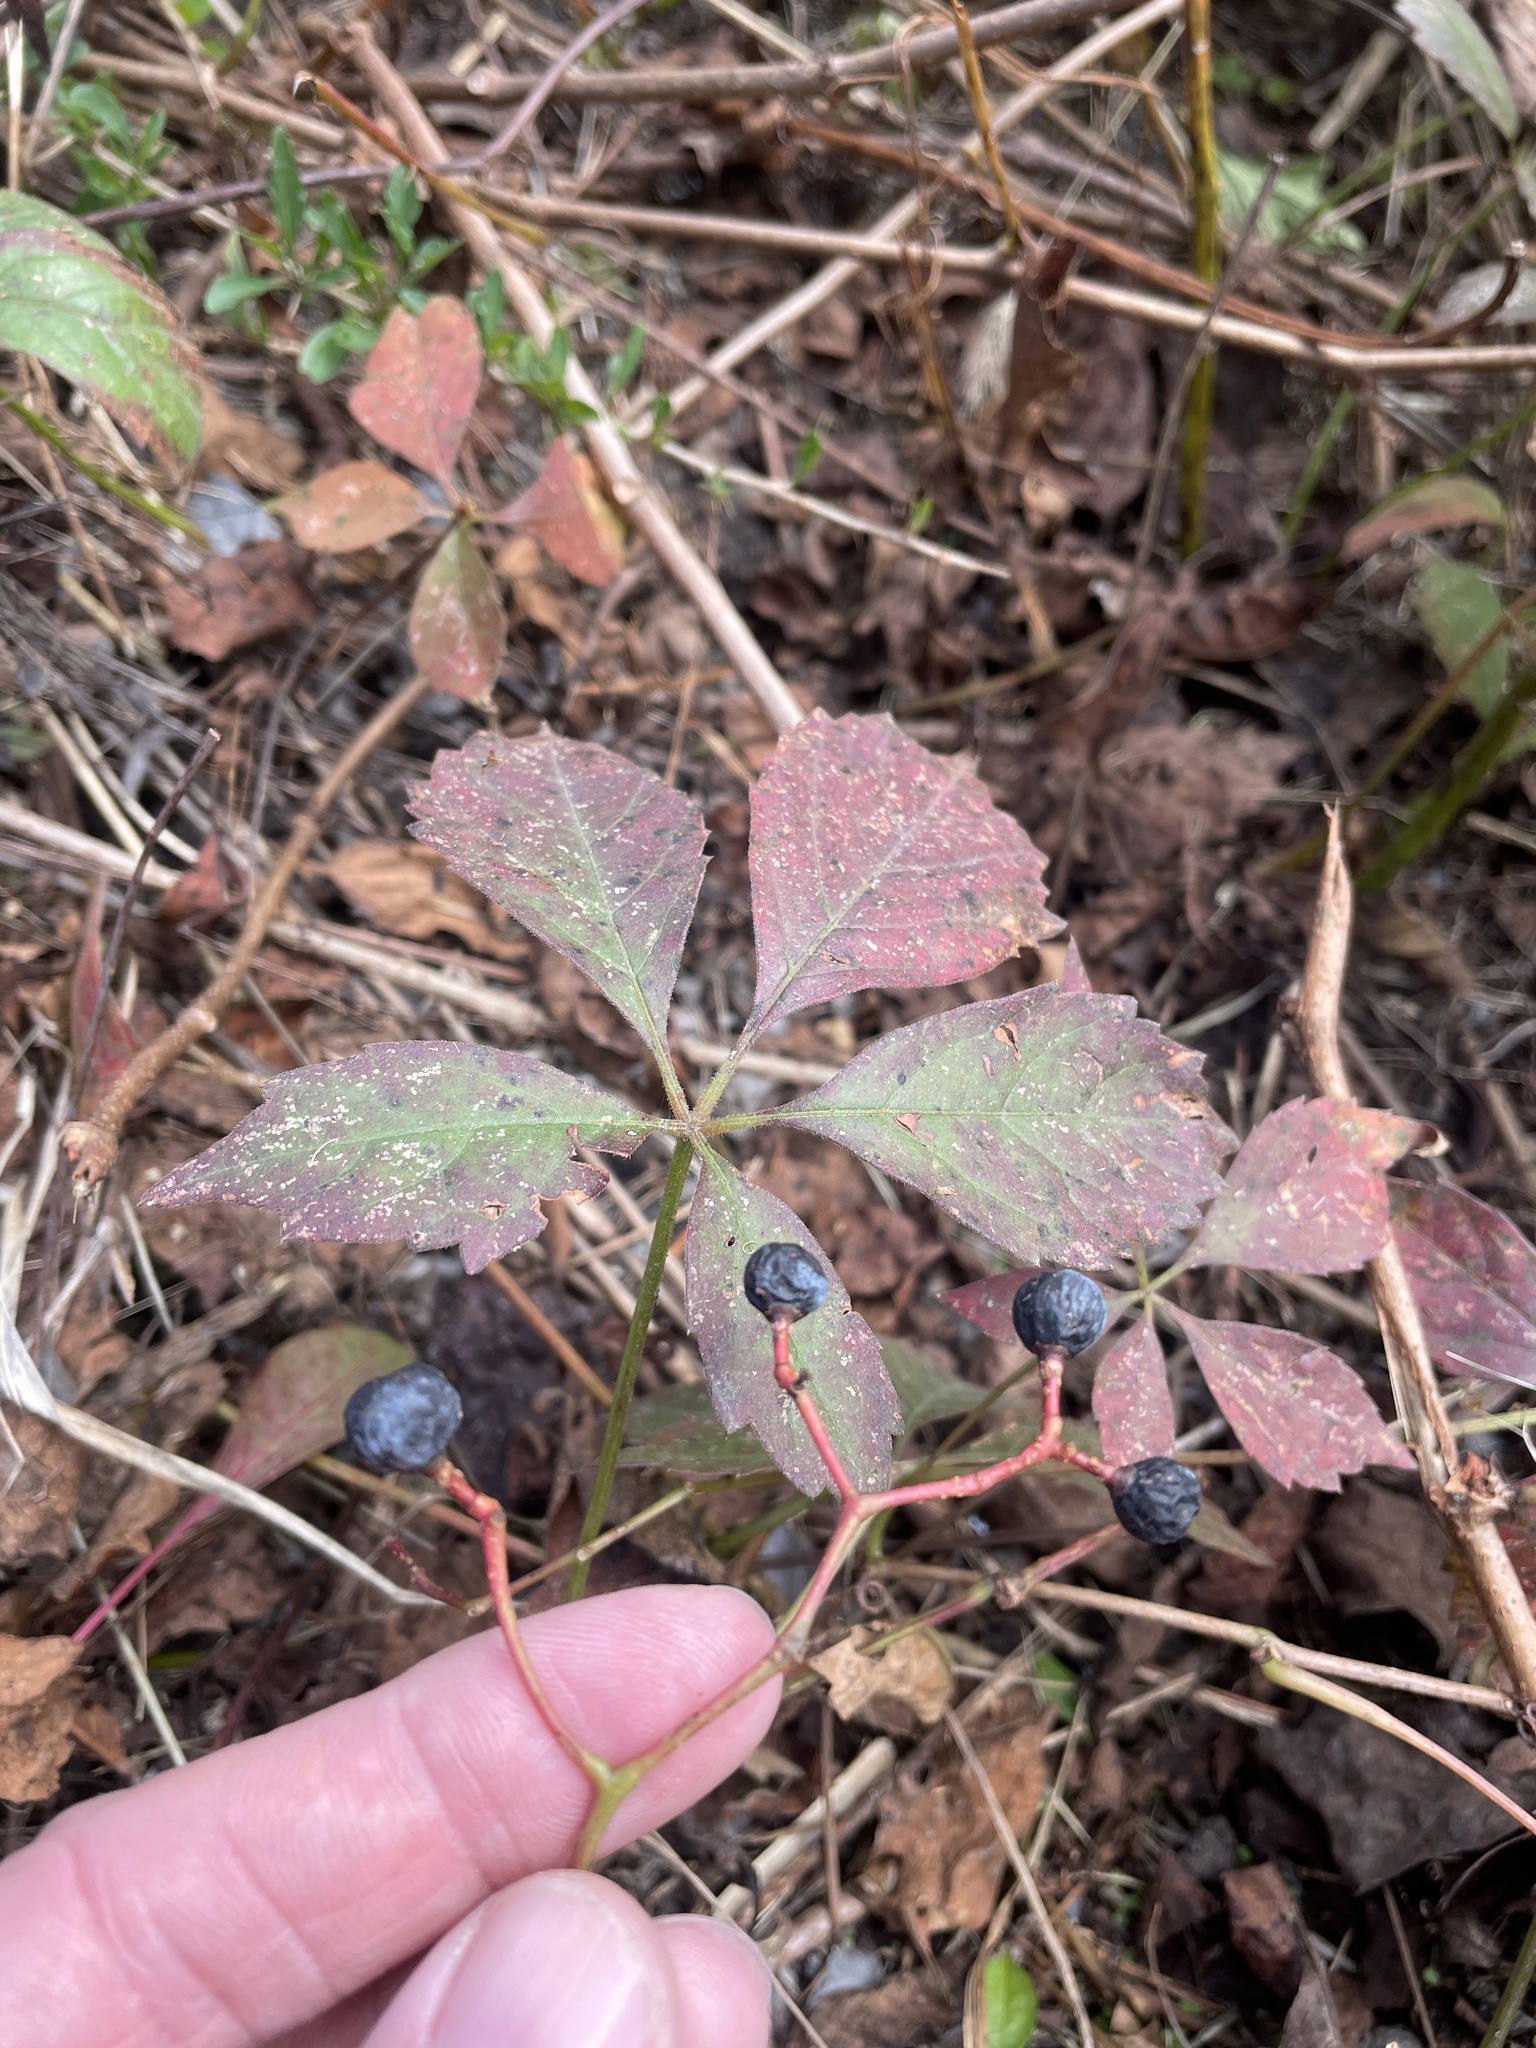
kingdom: Plantae
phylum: Tracheophyta
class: Magnoliopsida
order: Vitales
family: Vitaceae
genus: Parthenocissus
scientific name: Parthenocissus quinquefolia
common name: Virginia-creeper
